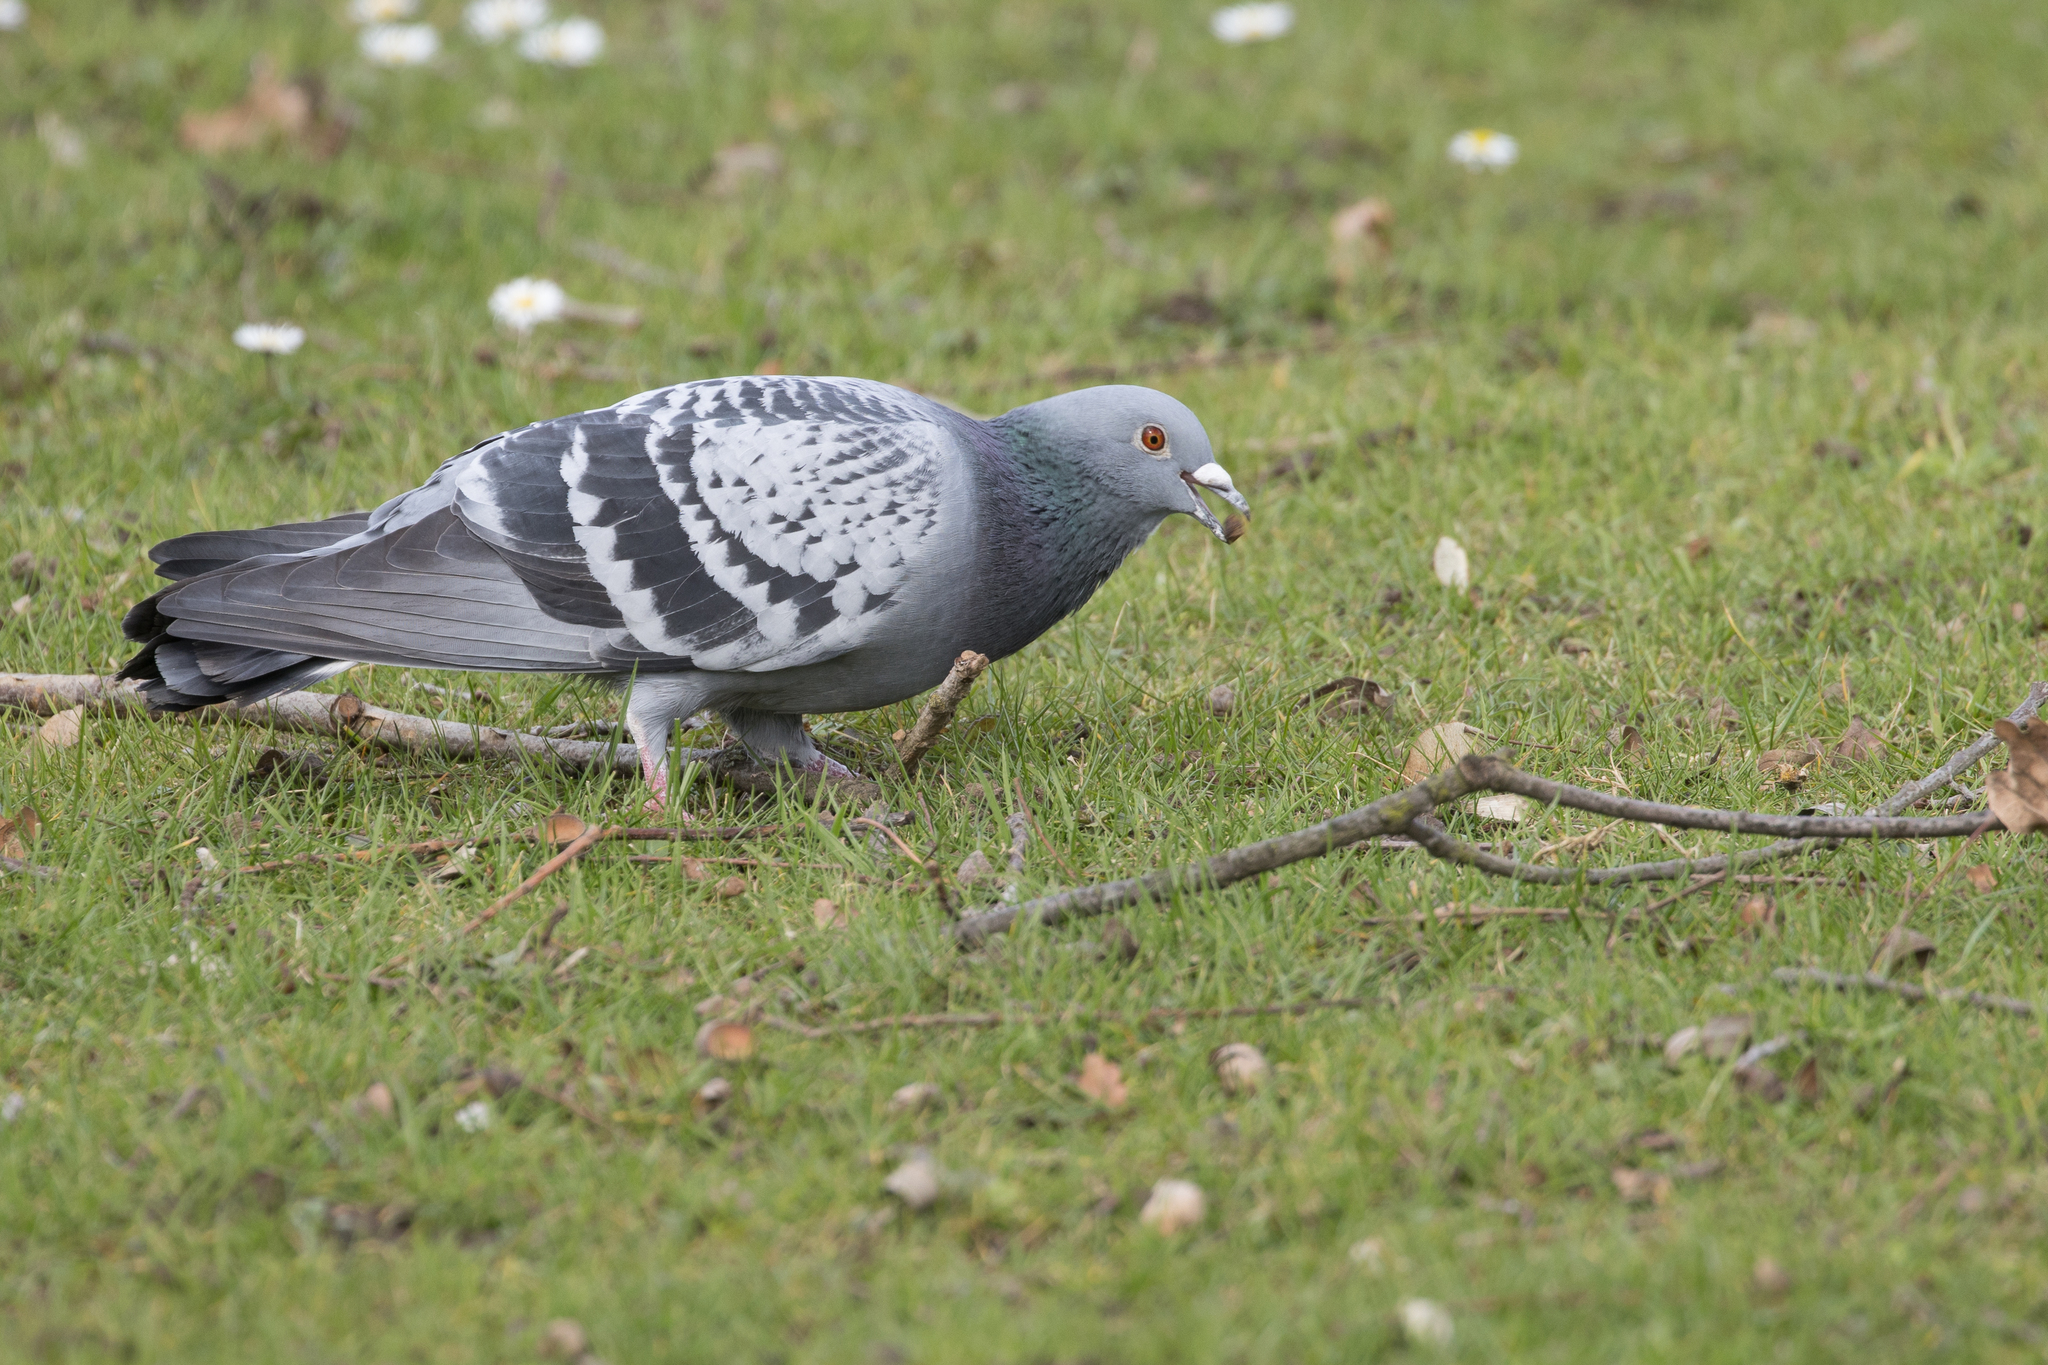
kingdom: Animalia
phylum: Chordata
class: Aves
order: Columbiformes
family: Columbidae
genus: Columba
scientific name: Columba livia
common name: Rock pigeon
